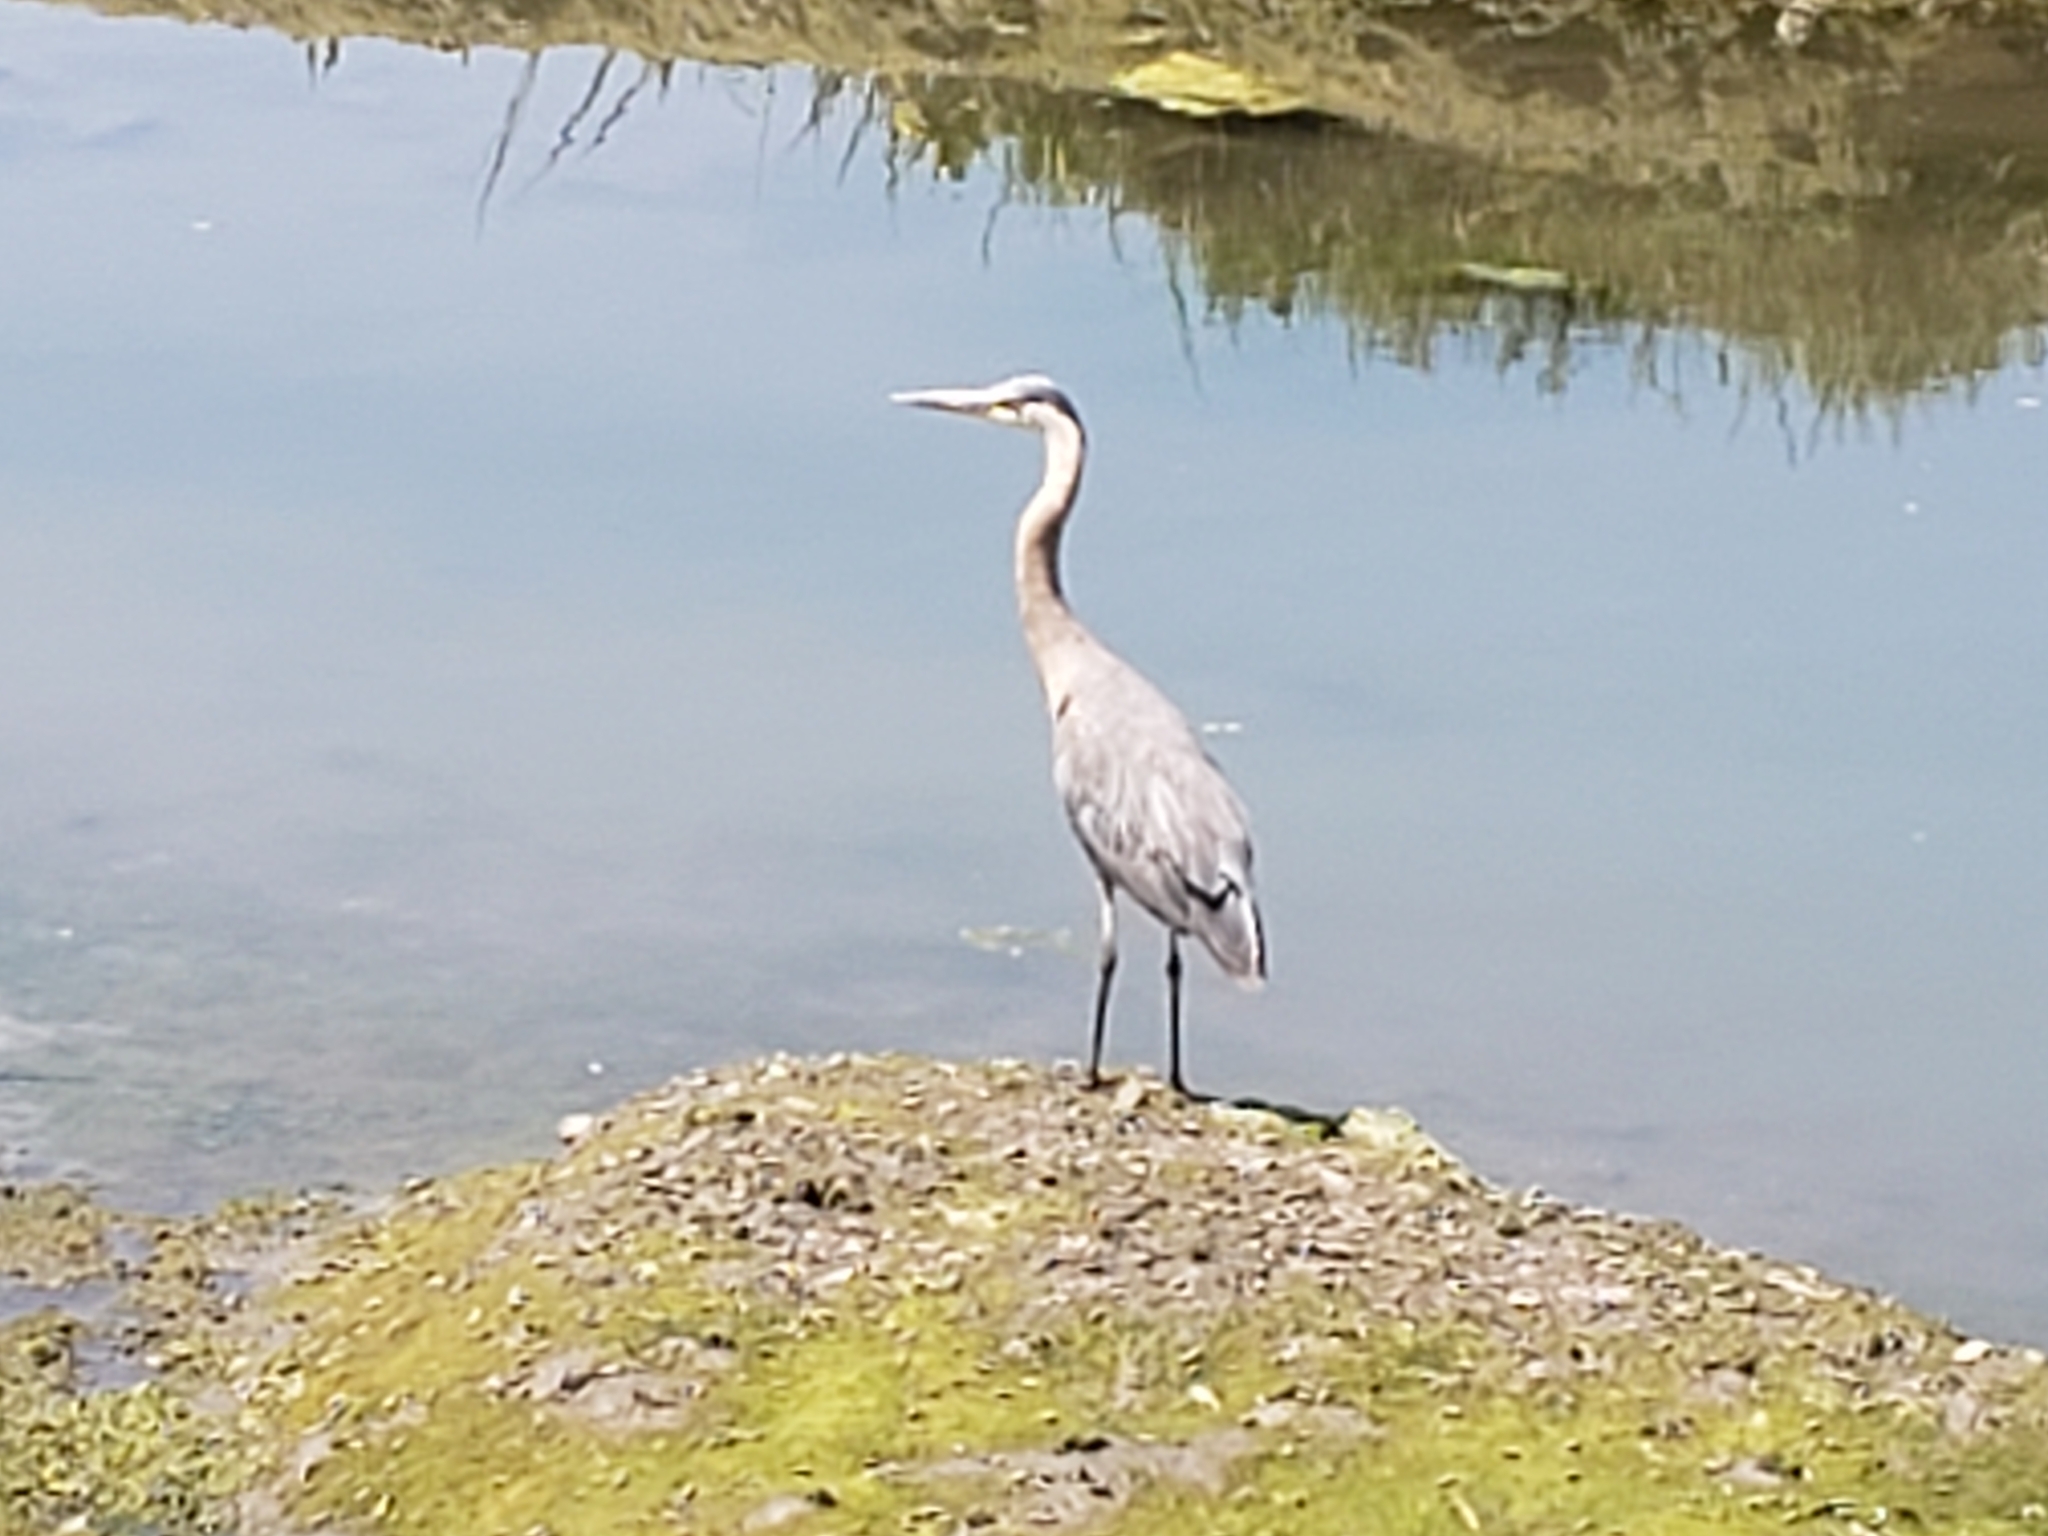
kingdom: Animalia
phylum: Chordata
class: Aves
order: Pelecaniformes
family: Ardeidae
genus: Ardea
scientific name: Ardea herodias
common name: Great blue heron
